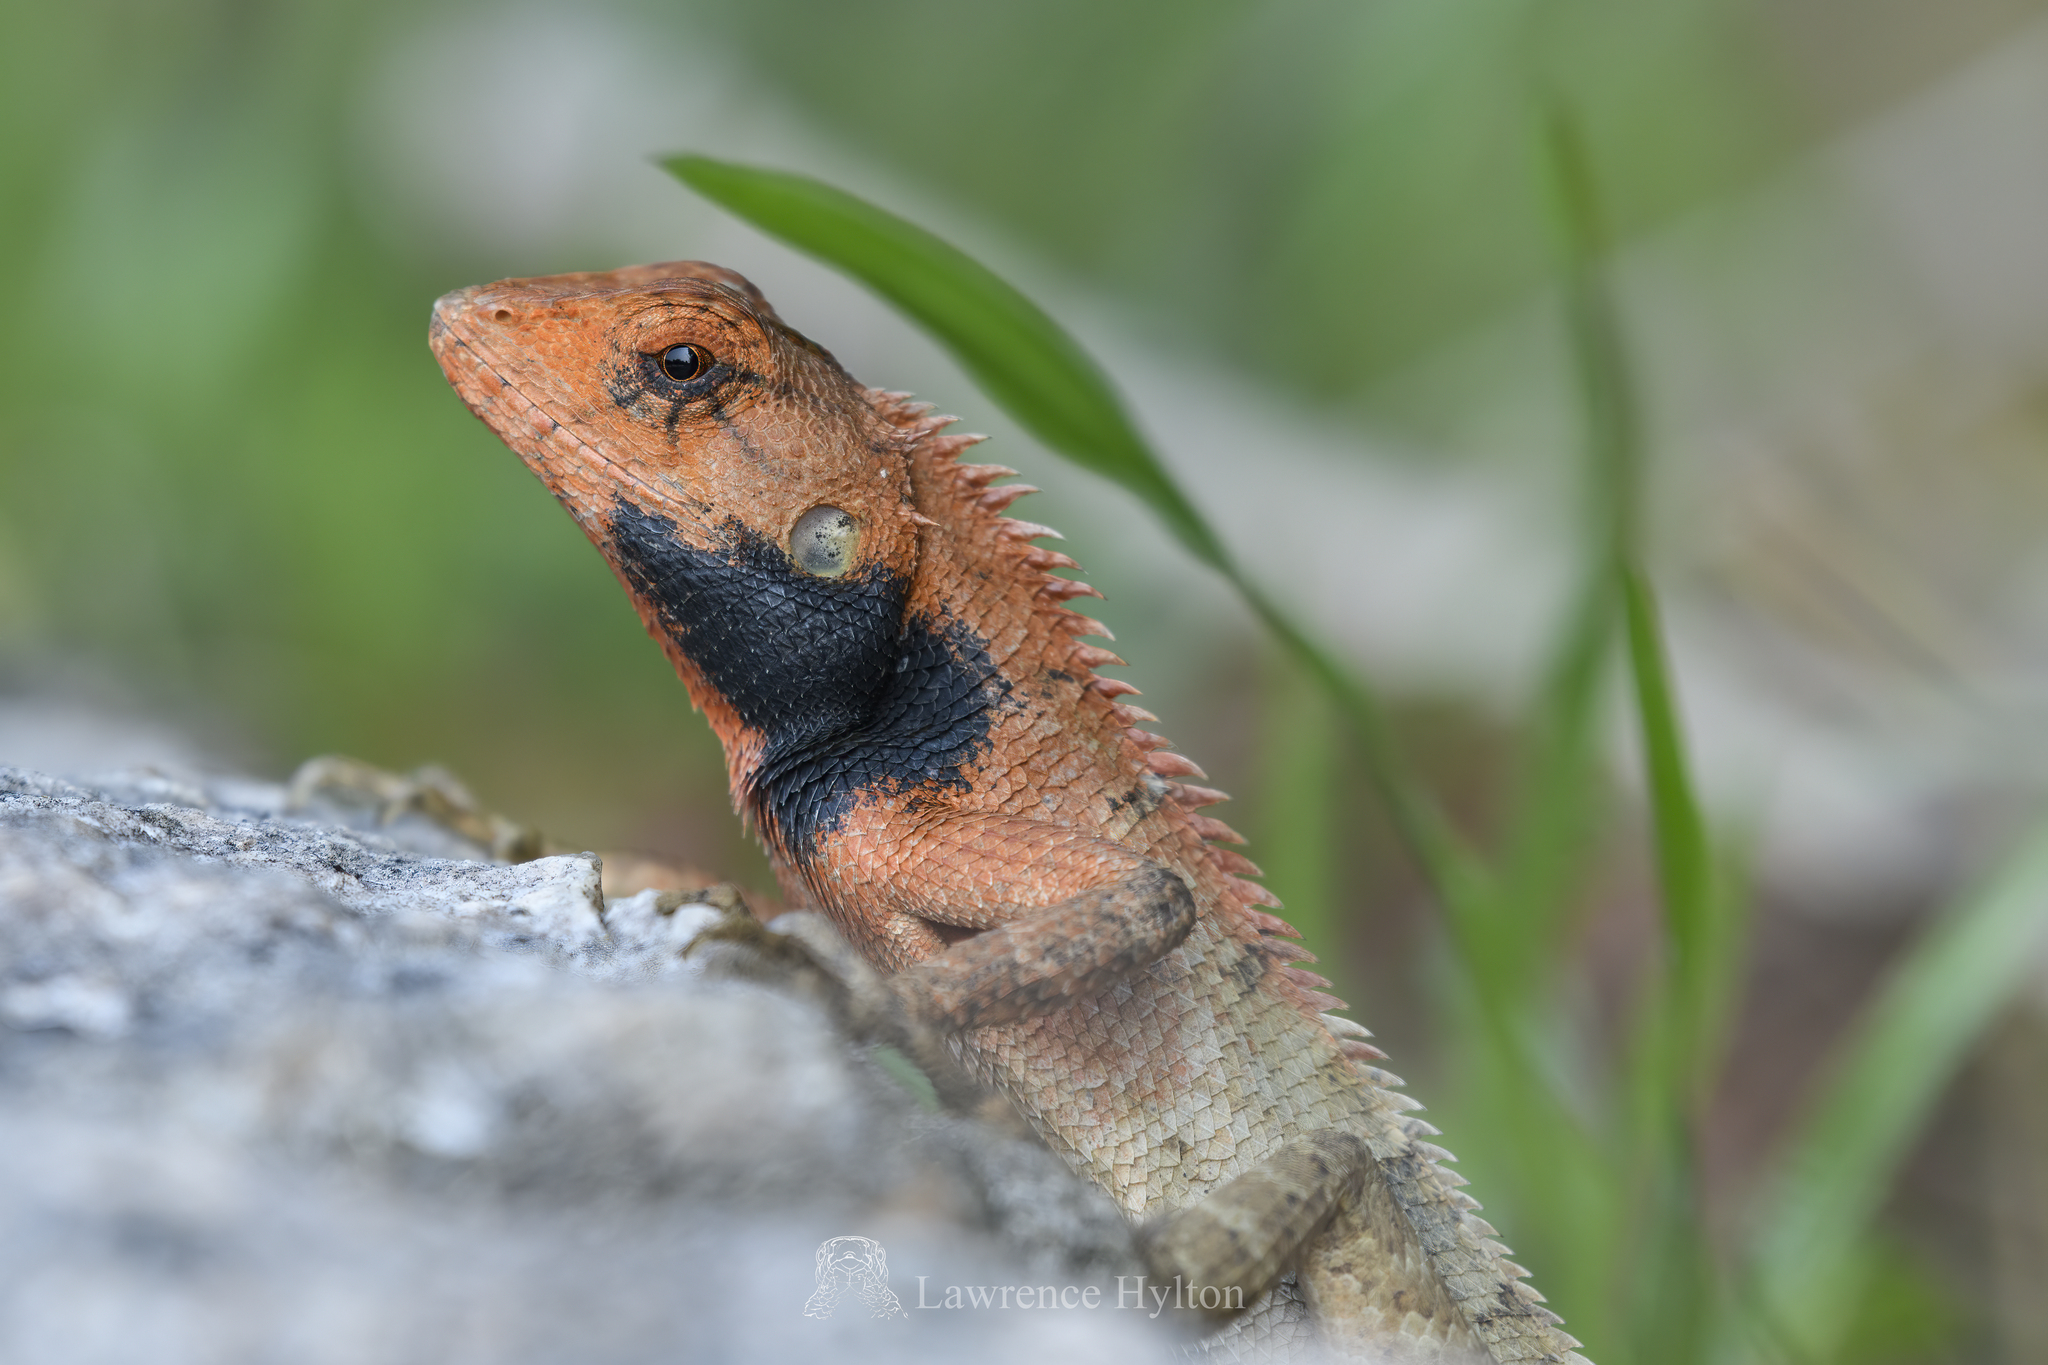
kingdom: Animalia
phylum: Chordata
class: Squamata
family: Agamidae
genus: Calotes
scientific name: Calotes versicolor
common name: Oriental garden lizard
